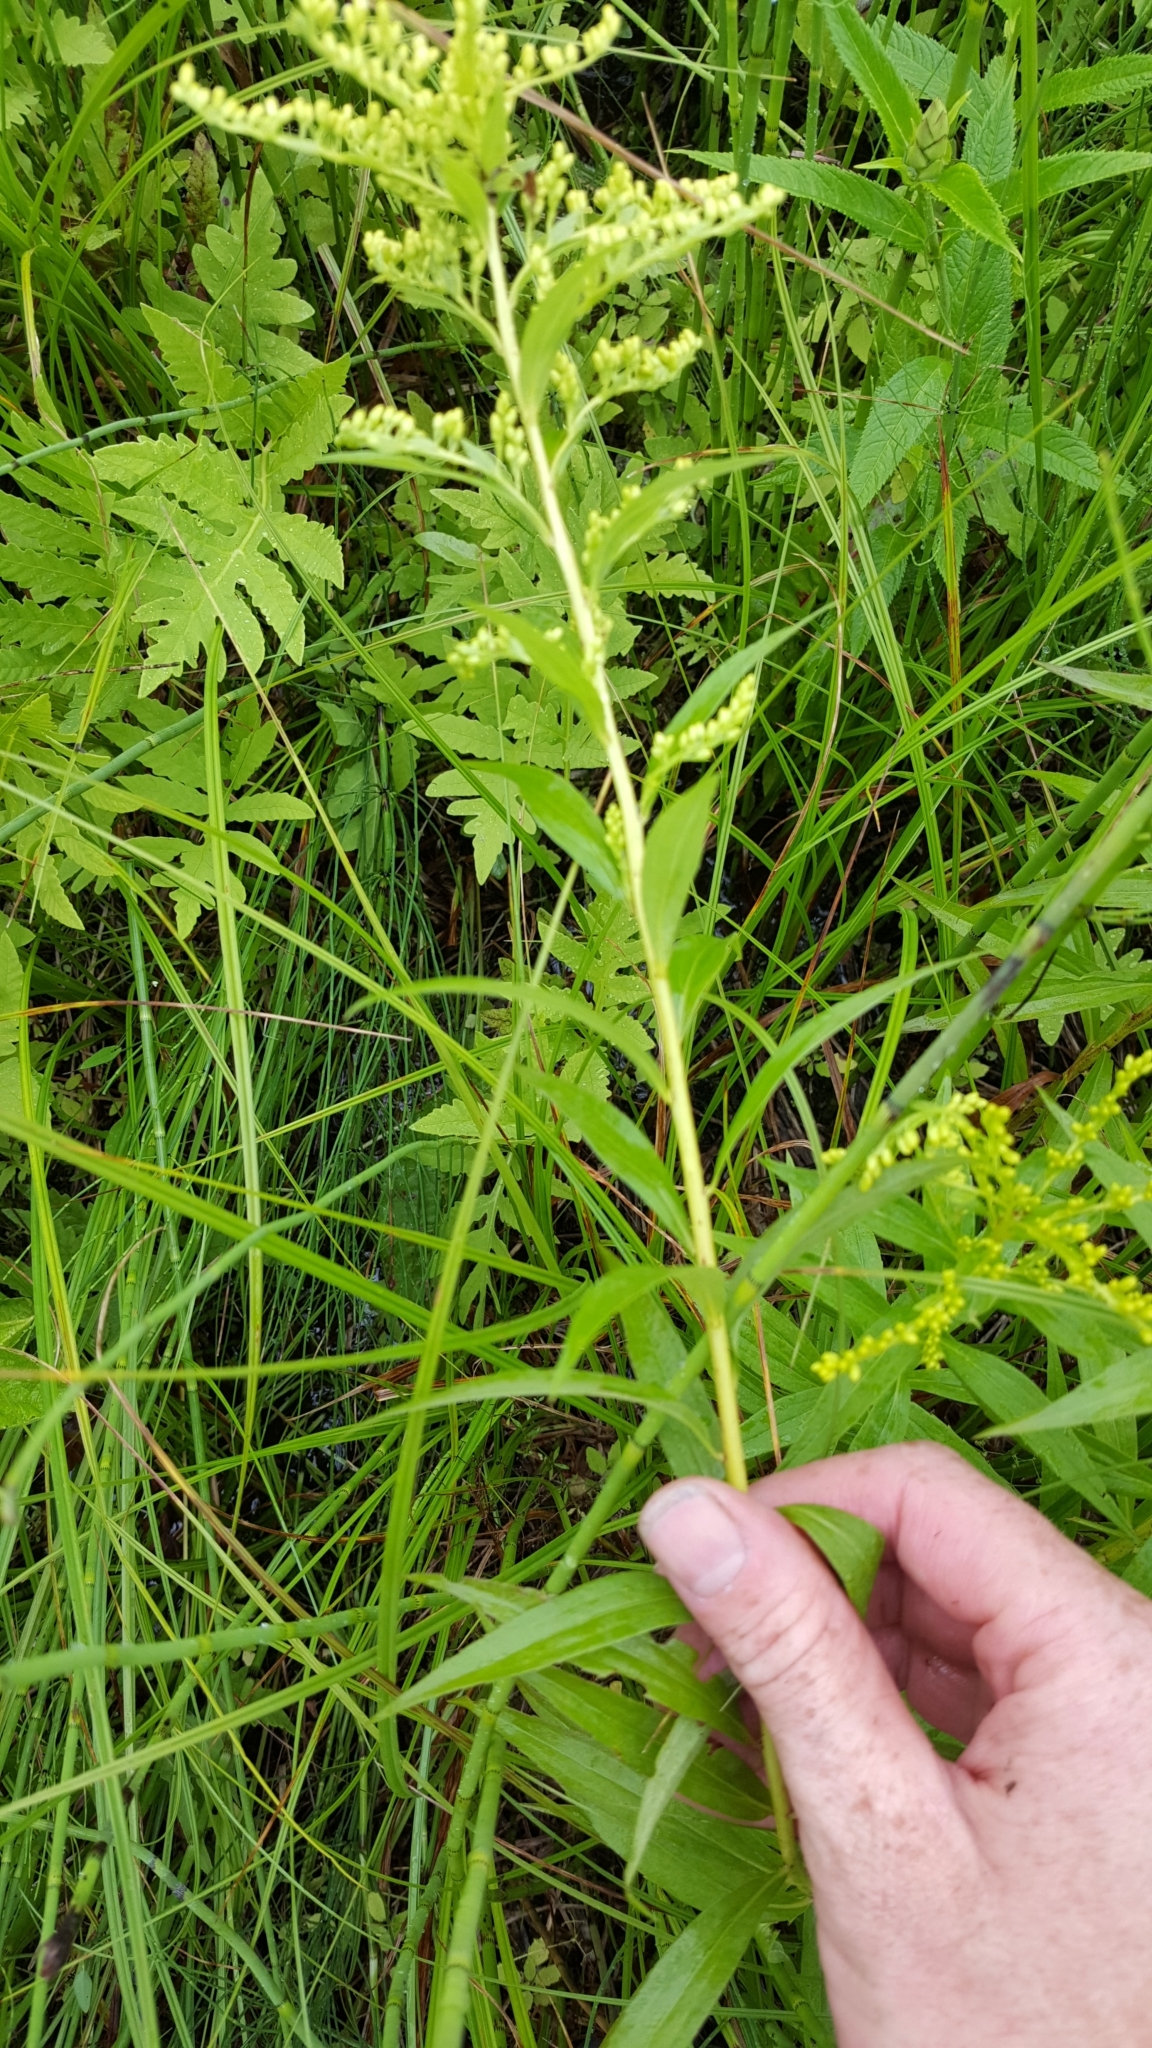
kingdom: Plantae
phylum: Tracheophyta
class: Magnoliopsida
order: Asterales
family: Asteraceae
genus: Solidago
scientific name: Solidago gigantea
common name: Giant goldenrod
